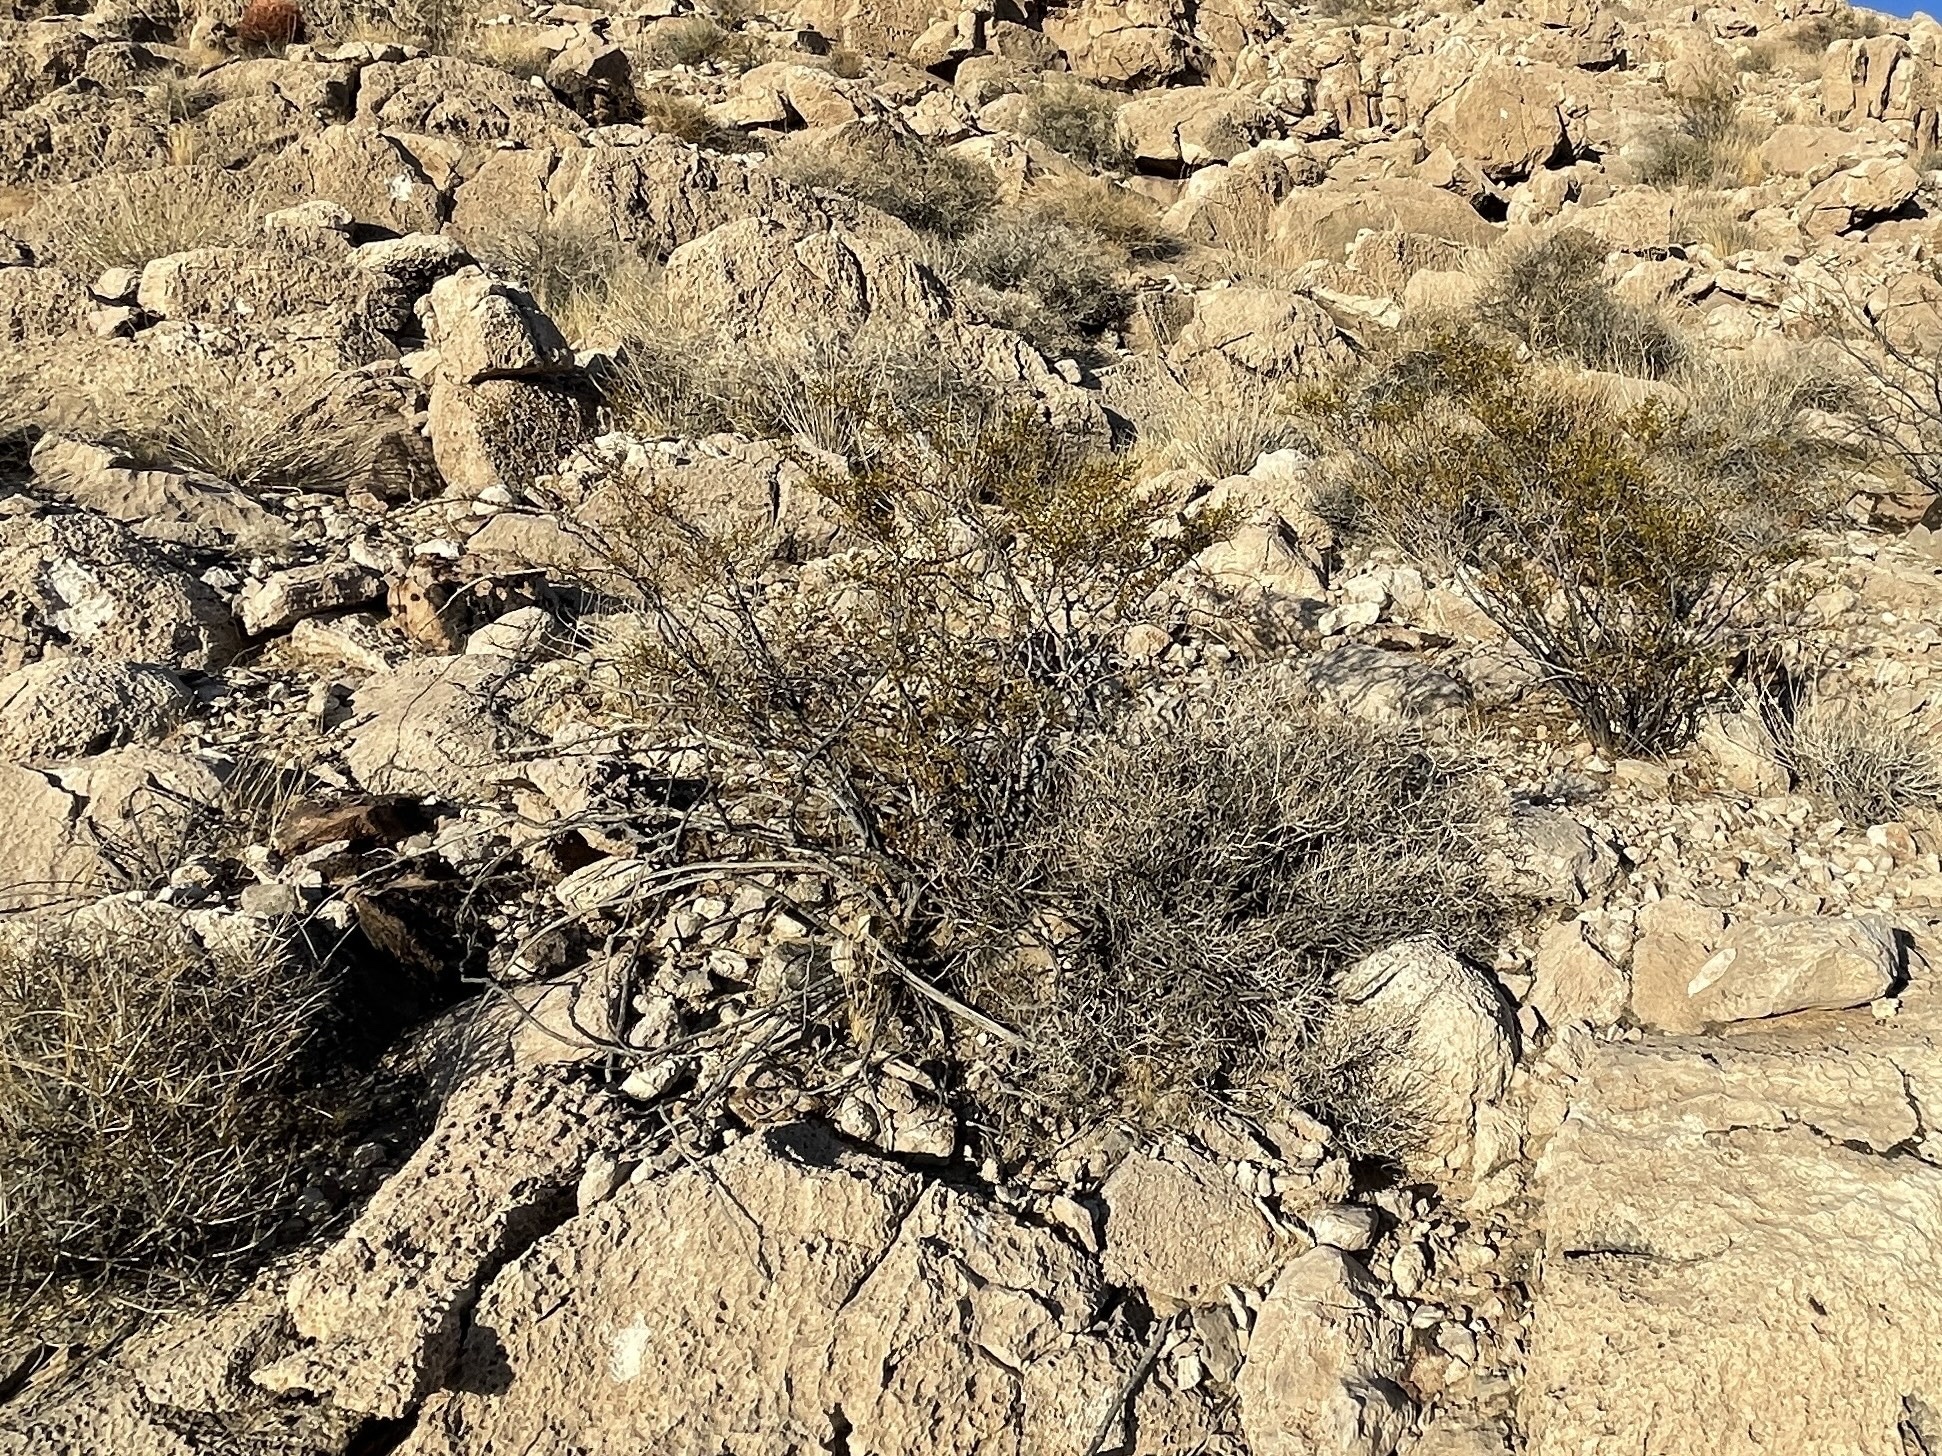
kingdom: Plantae
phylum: Tracheophyta
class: Magnoliopsida
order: Zygophyllales
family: Zygophyllaceae
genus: Larrea
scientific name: Larrea tridentata
